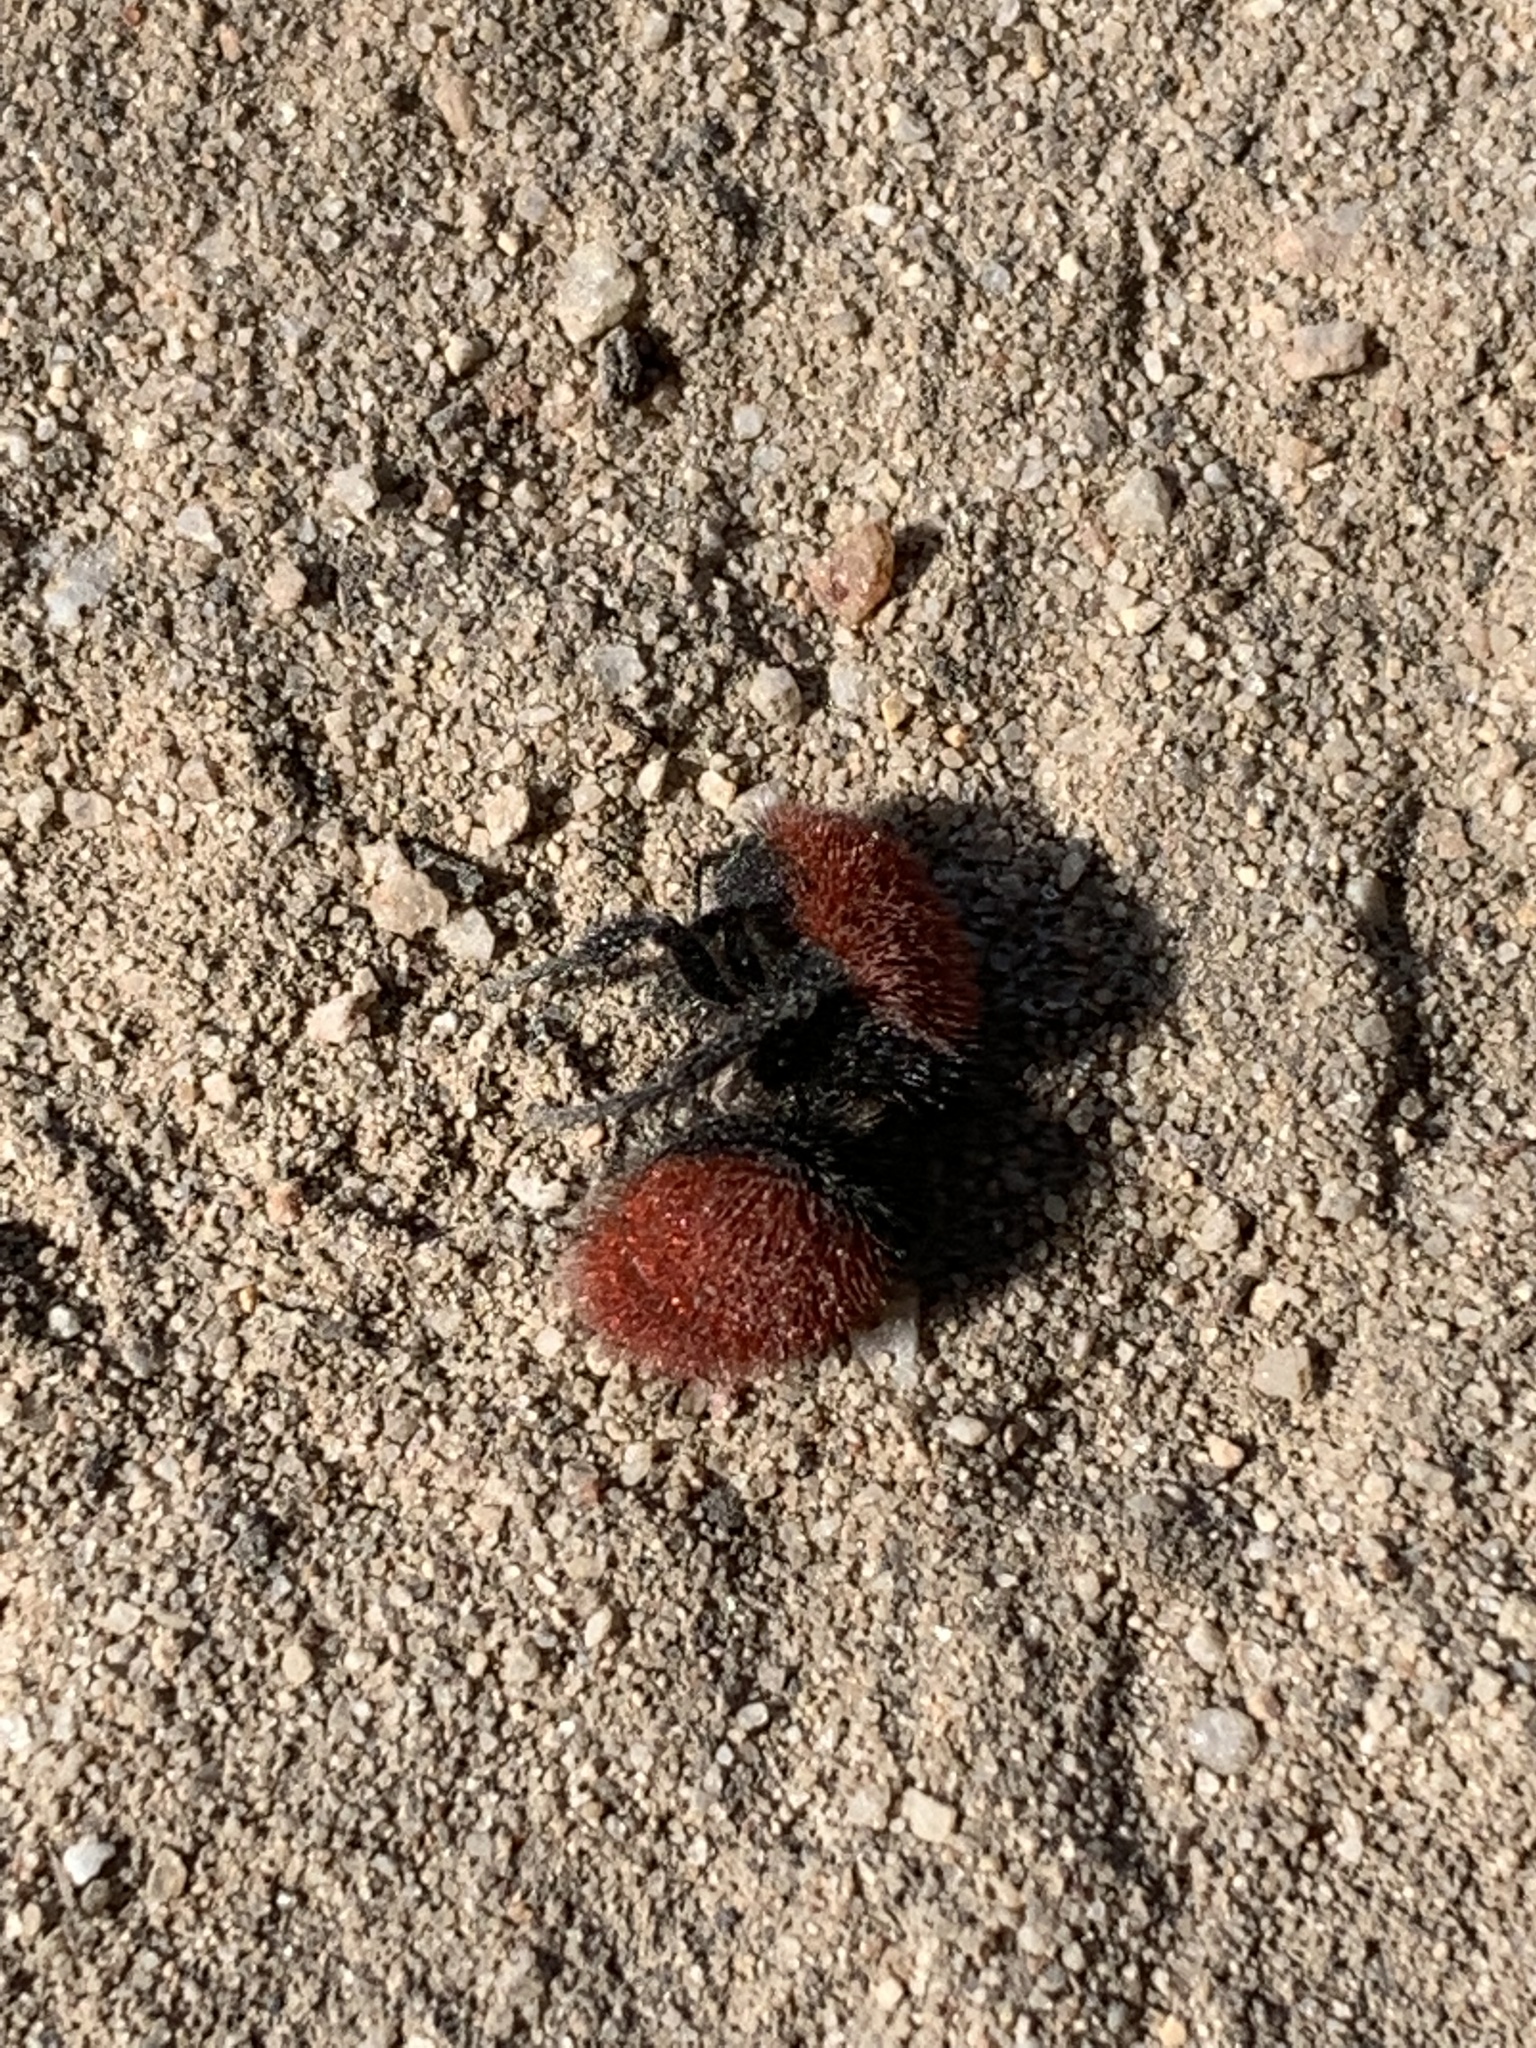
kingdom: Animalia
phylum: Arthropoda
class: Insecta
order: Hymenoptera
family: Mutillidae
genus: Dasymutilla
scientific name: Dasymutilla
